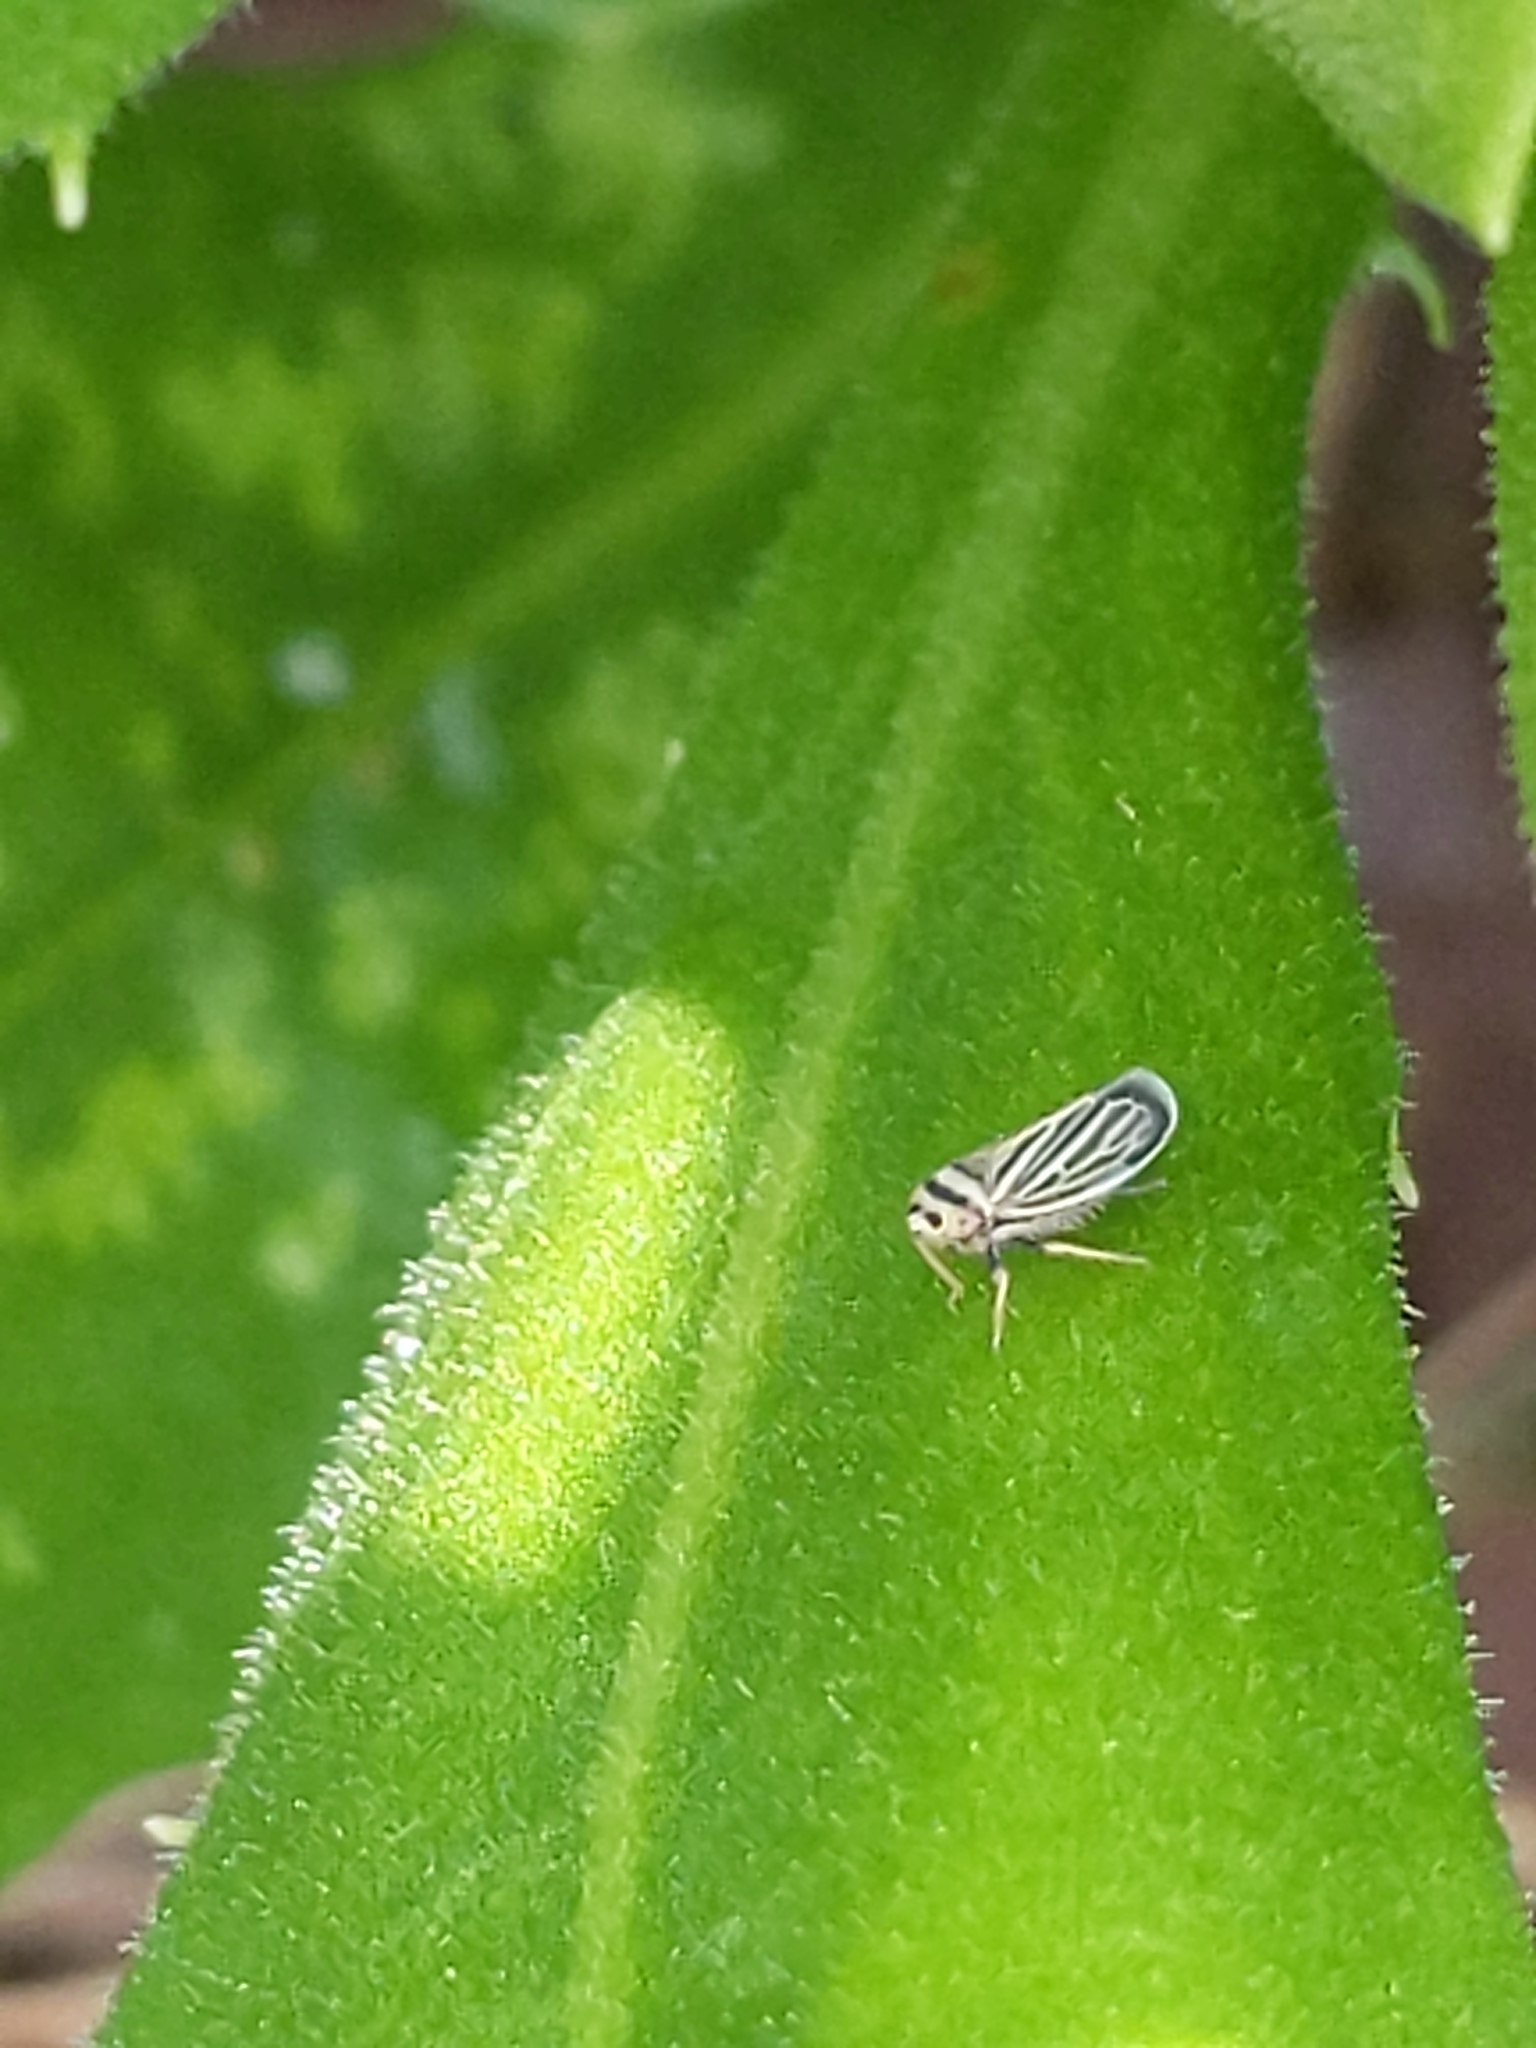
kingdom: Animalia
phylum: Arthropoda
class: Insecta
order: Hemiptera
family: Cicadellidae
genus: Amblysellus
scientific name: Amblysellus curtisii
